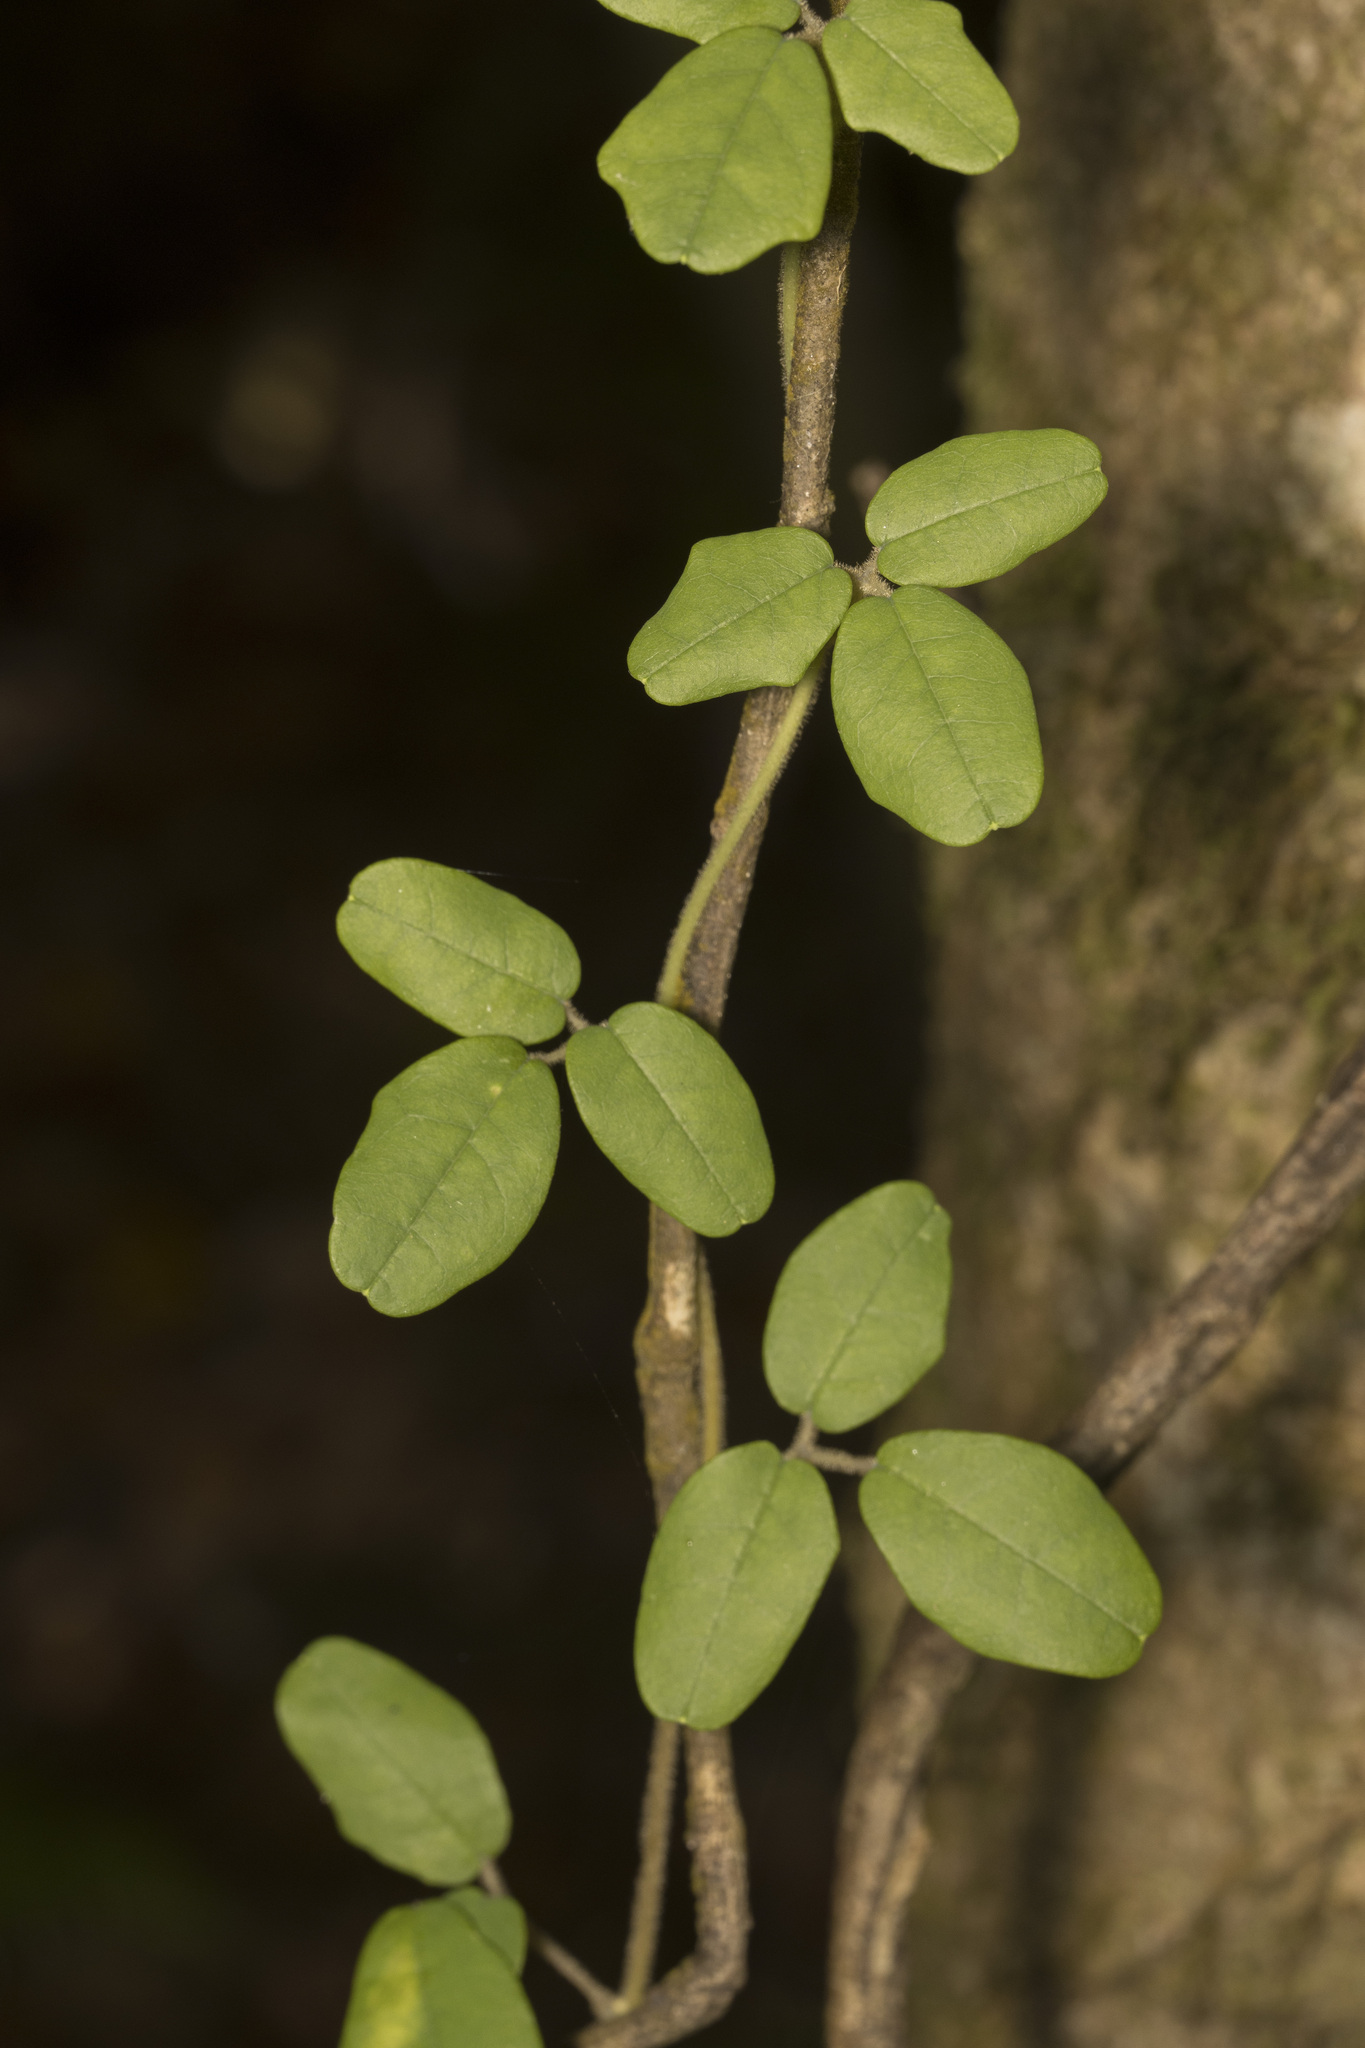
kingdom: Plantae
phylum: Tracheophyta
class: Magnoliopsida
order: Ranunculales
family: Lardizabalaceae
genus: Boquila
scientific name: Boquila trifoliolata
